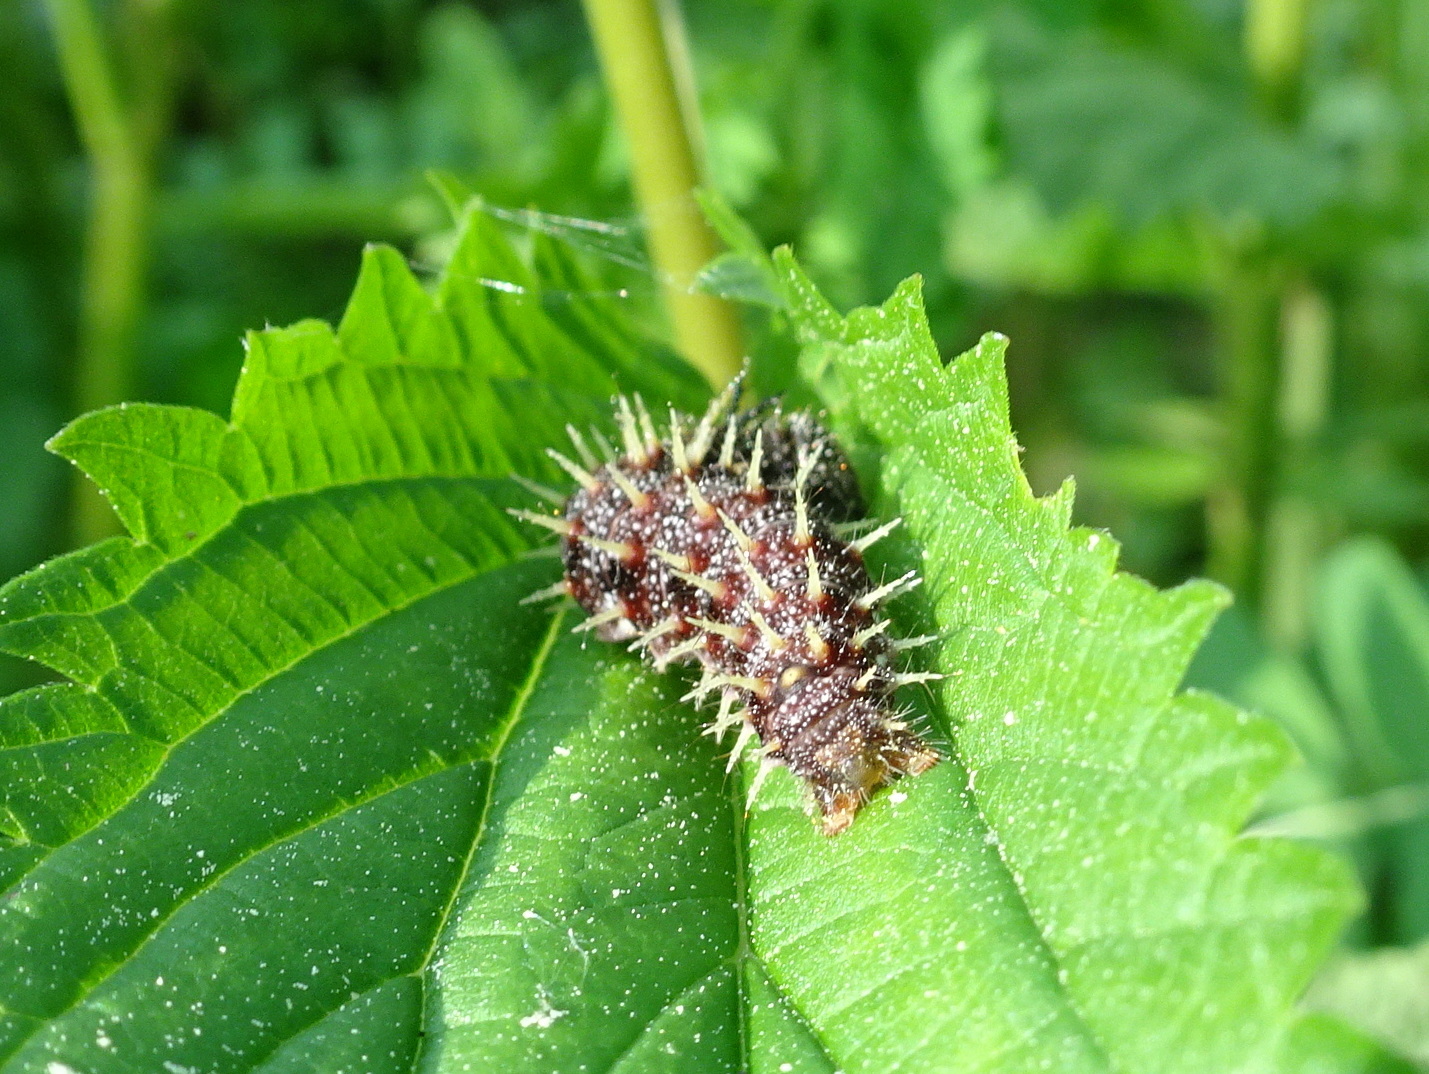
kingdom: Animalia
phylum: Arthropoda
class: Insecta
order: Lepidoptera
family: Nymphalidae
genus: Polygonia
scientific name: Polygonia interrogationis
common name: Question mark
